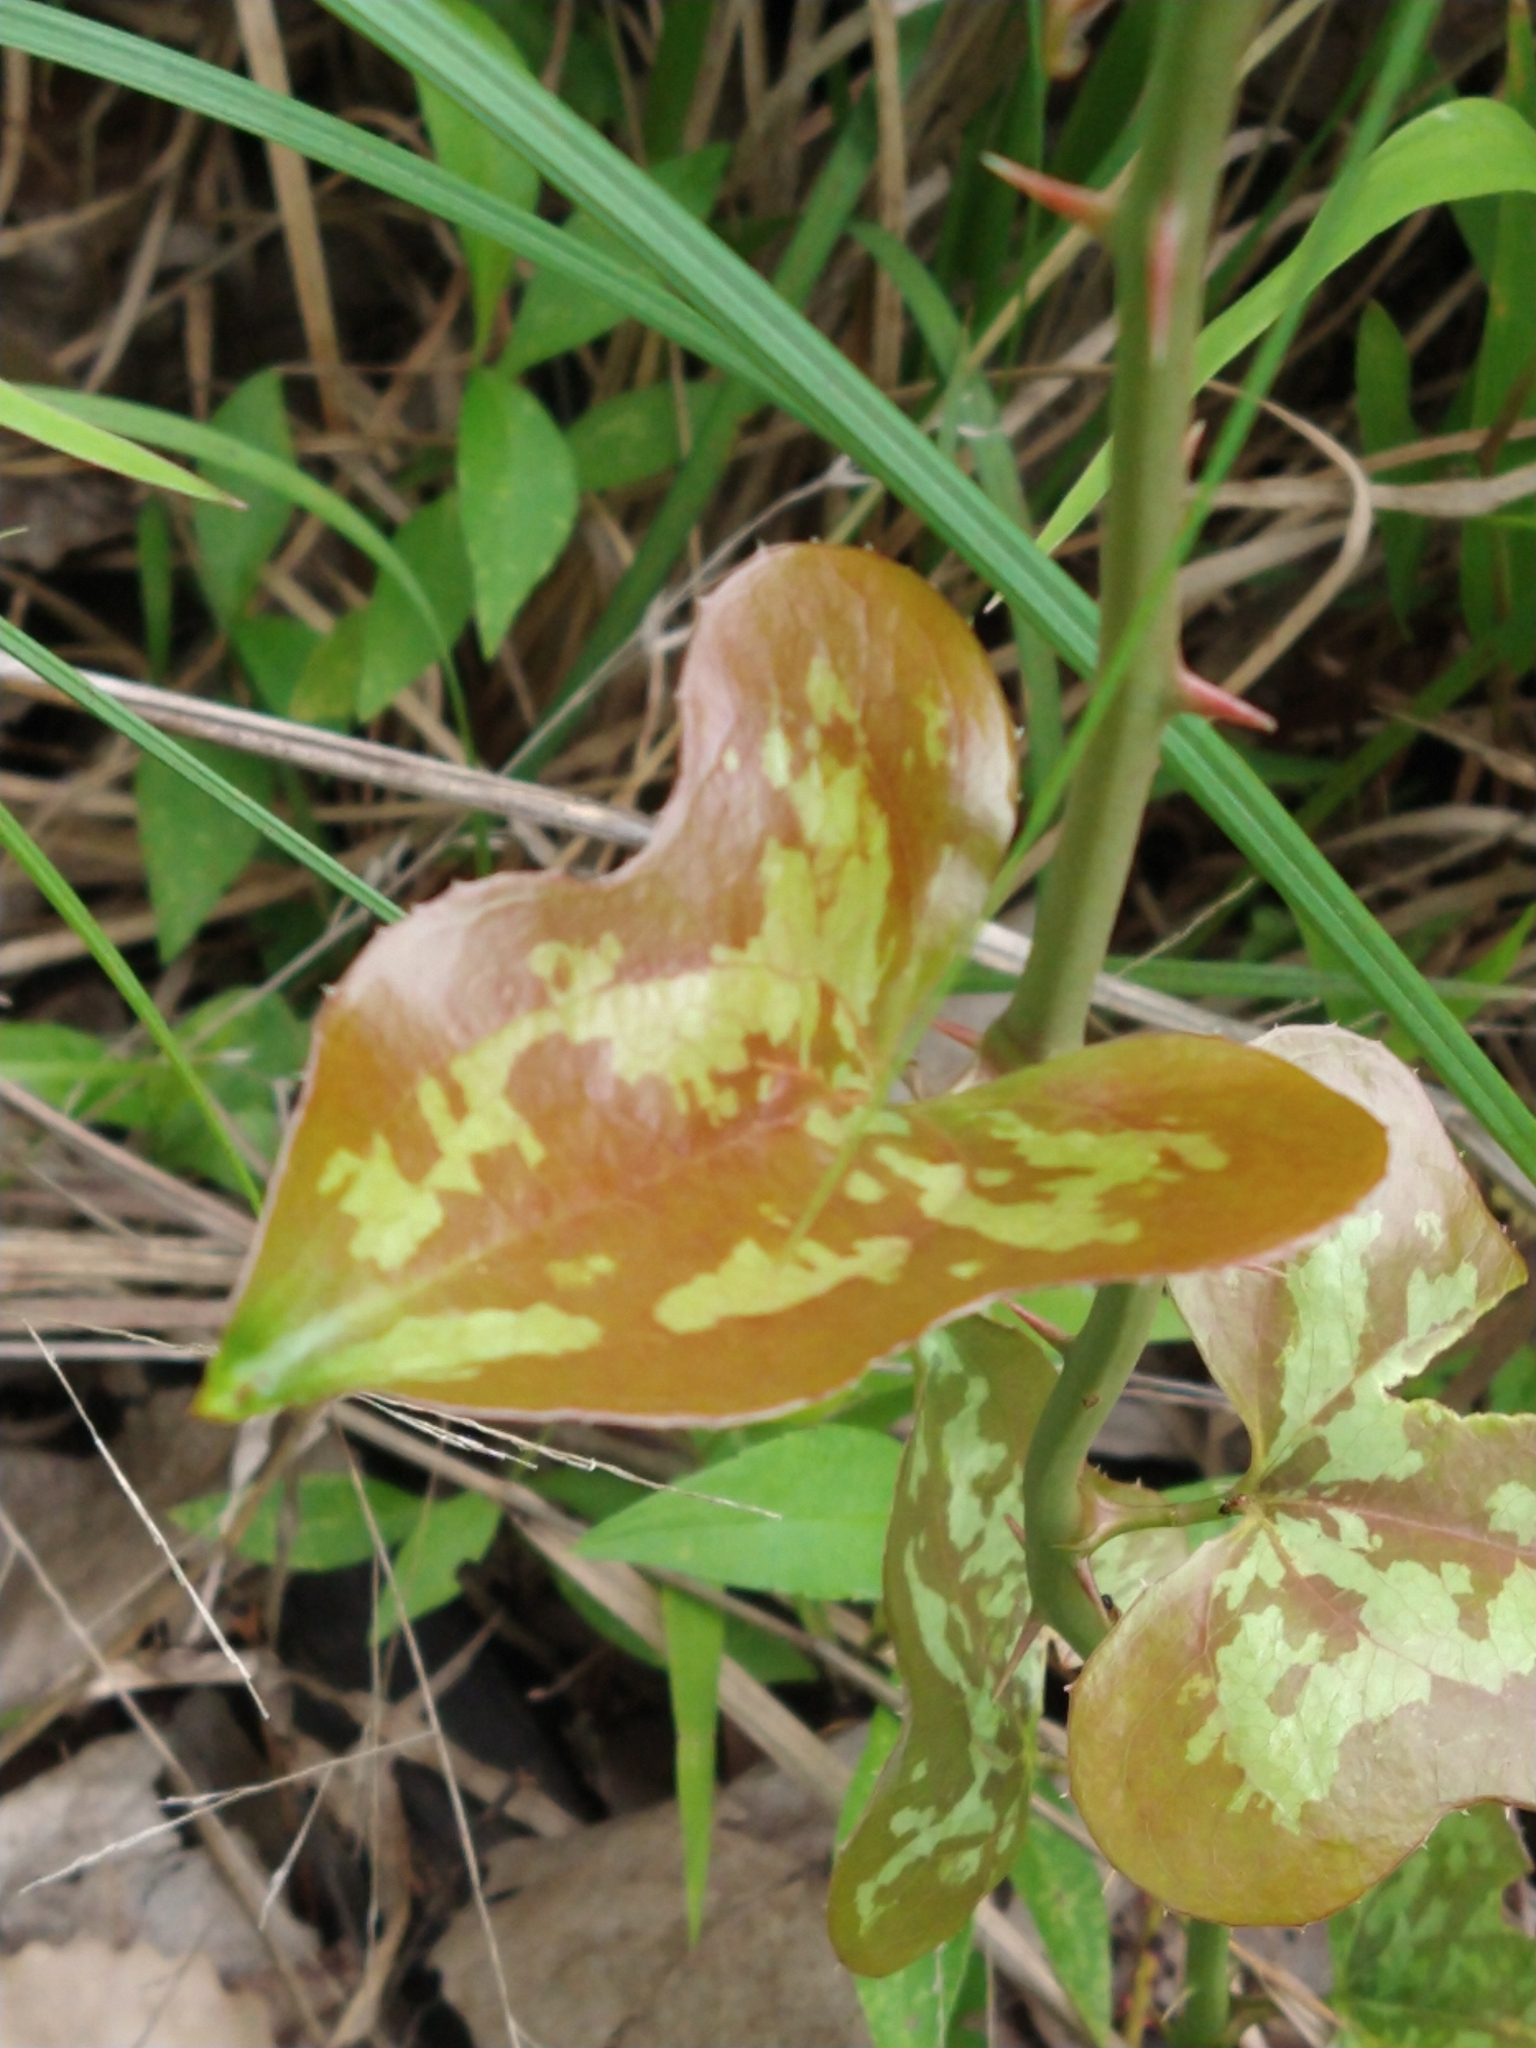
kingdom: Plantae
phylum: Tracheophyta
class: Liliopsida
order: Liliales
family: Smilacaceae
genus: Smilax
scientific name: Smilax bona-nox
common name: Catbrier
